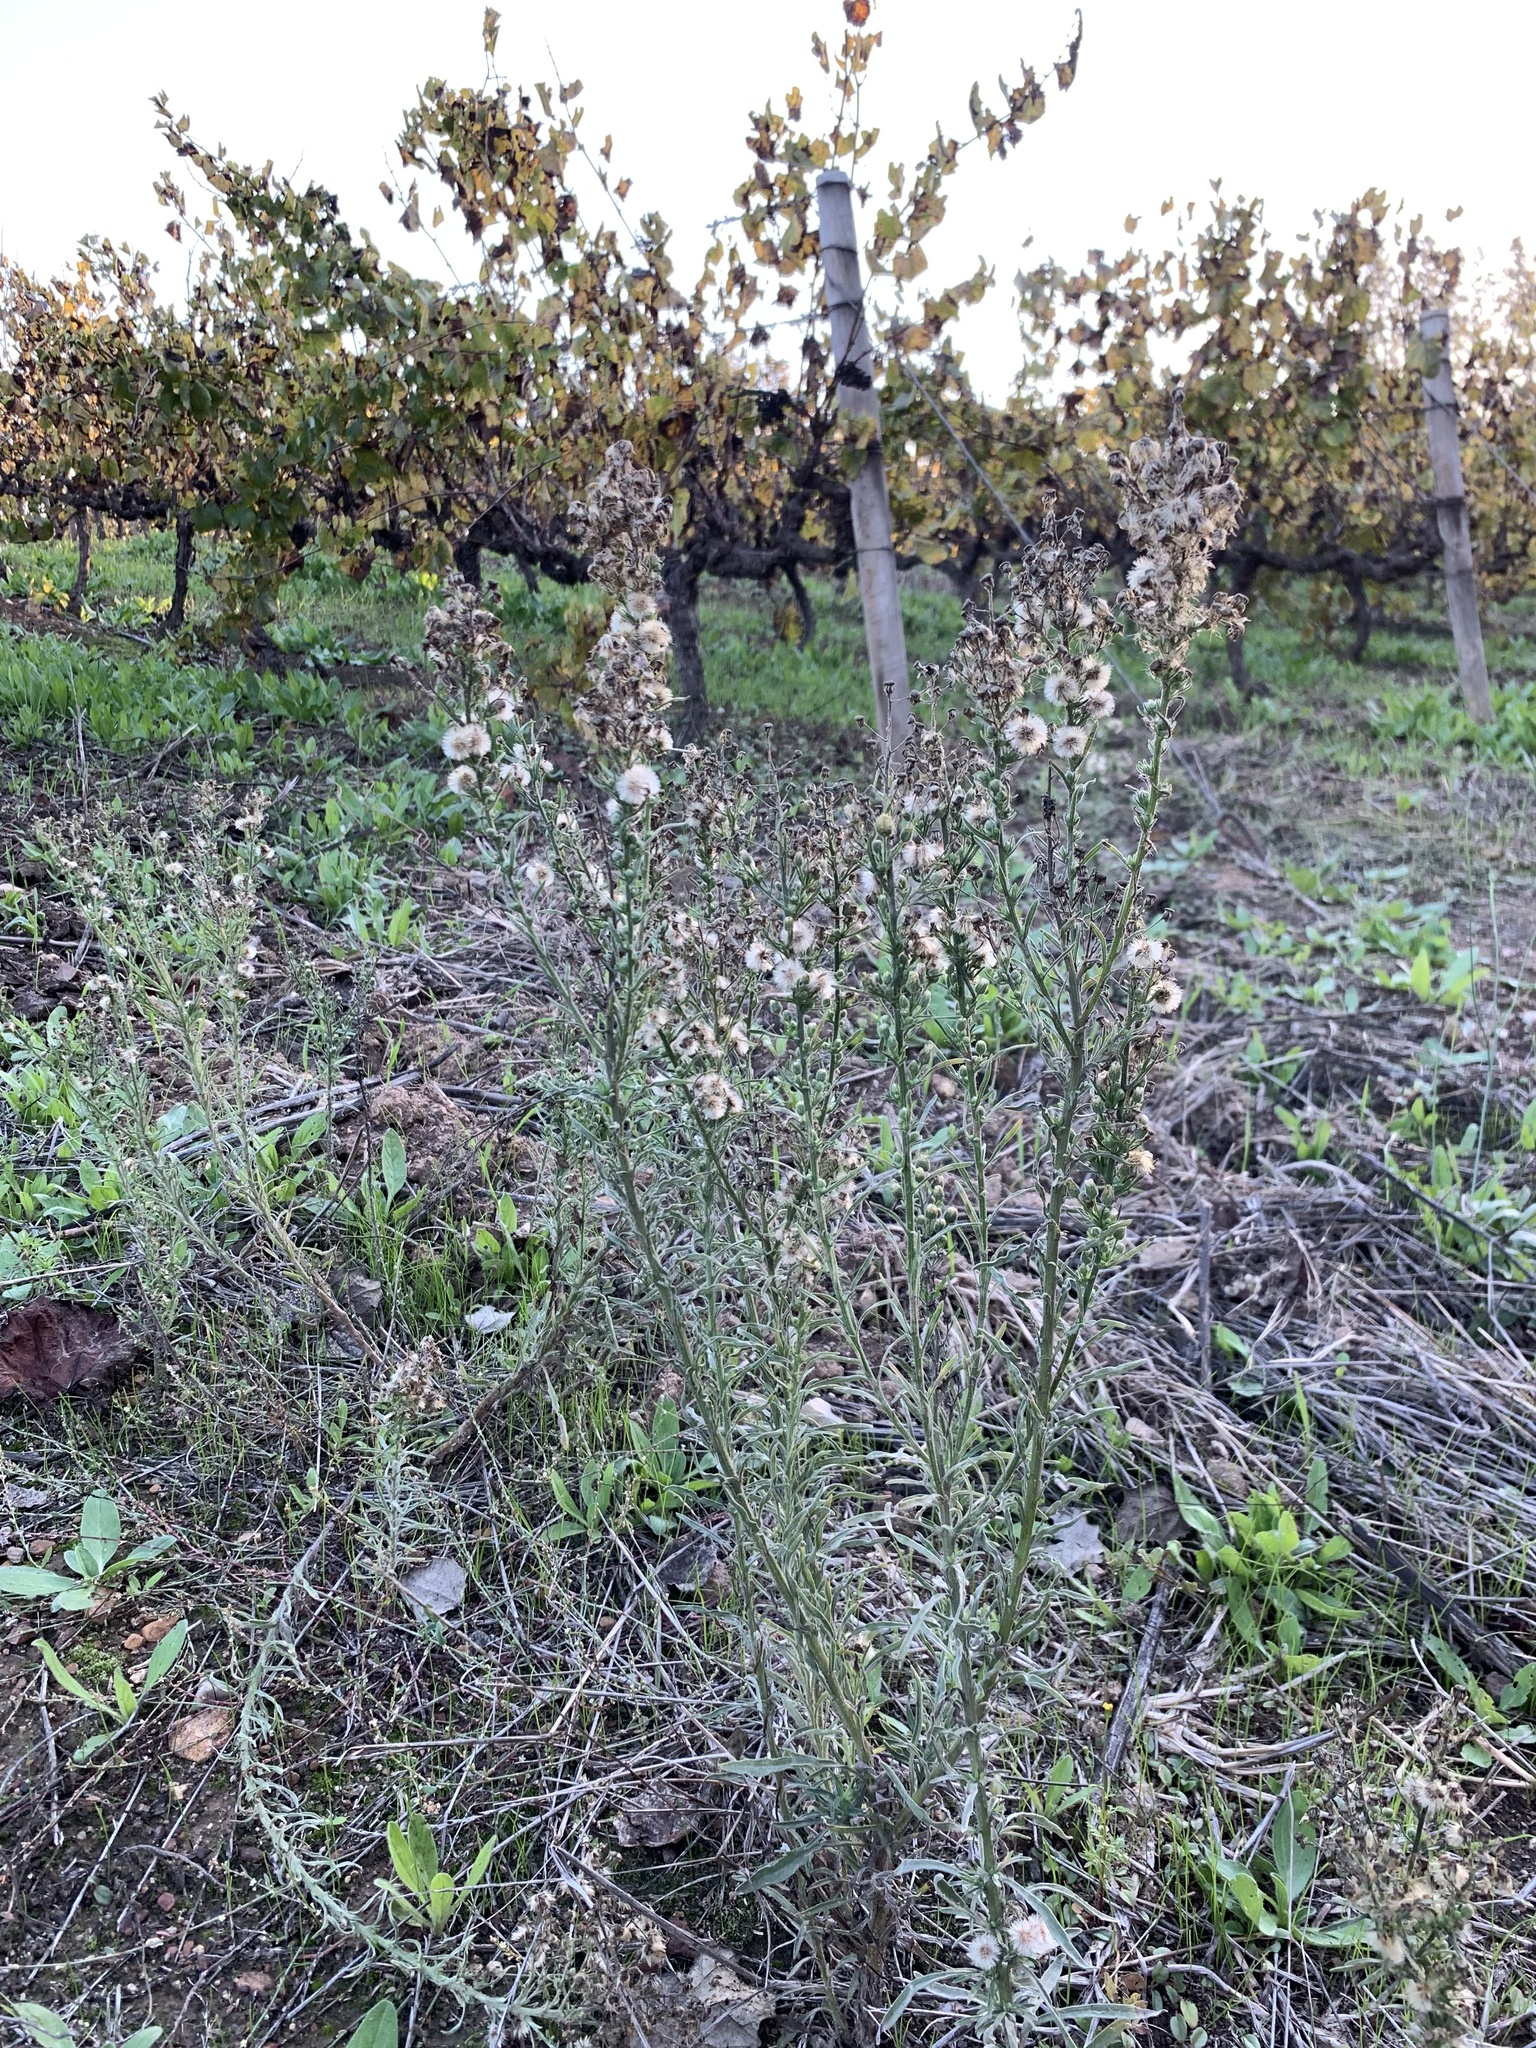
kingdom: Plantae
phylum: Tracheophyta
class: Magnoliopsida
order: Asterales
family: Asteraceae
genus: Erigeron
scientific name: Erigeron bonariensis
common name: Argentine fleabane
